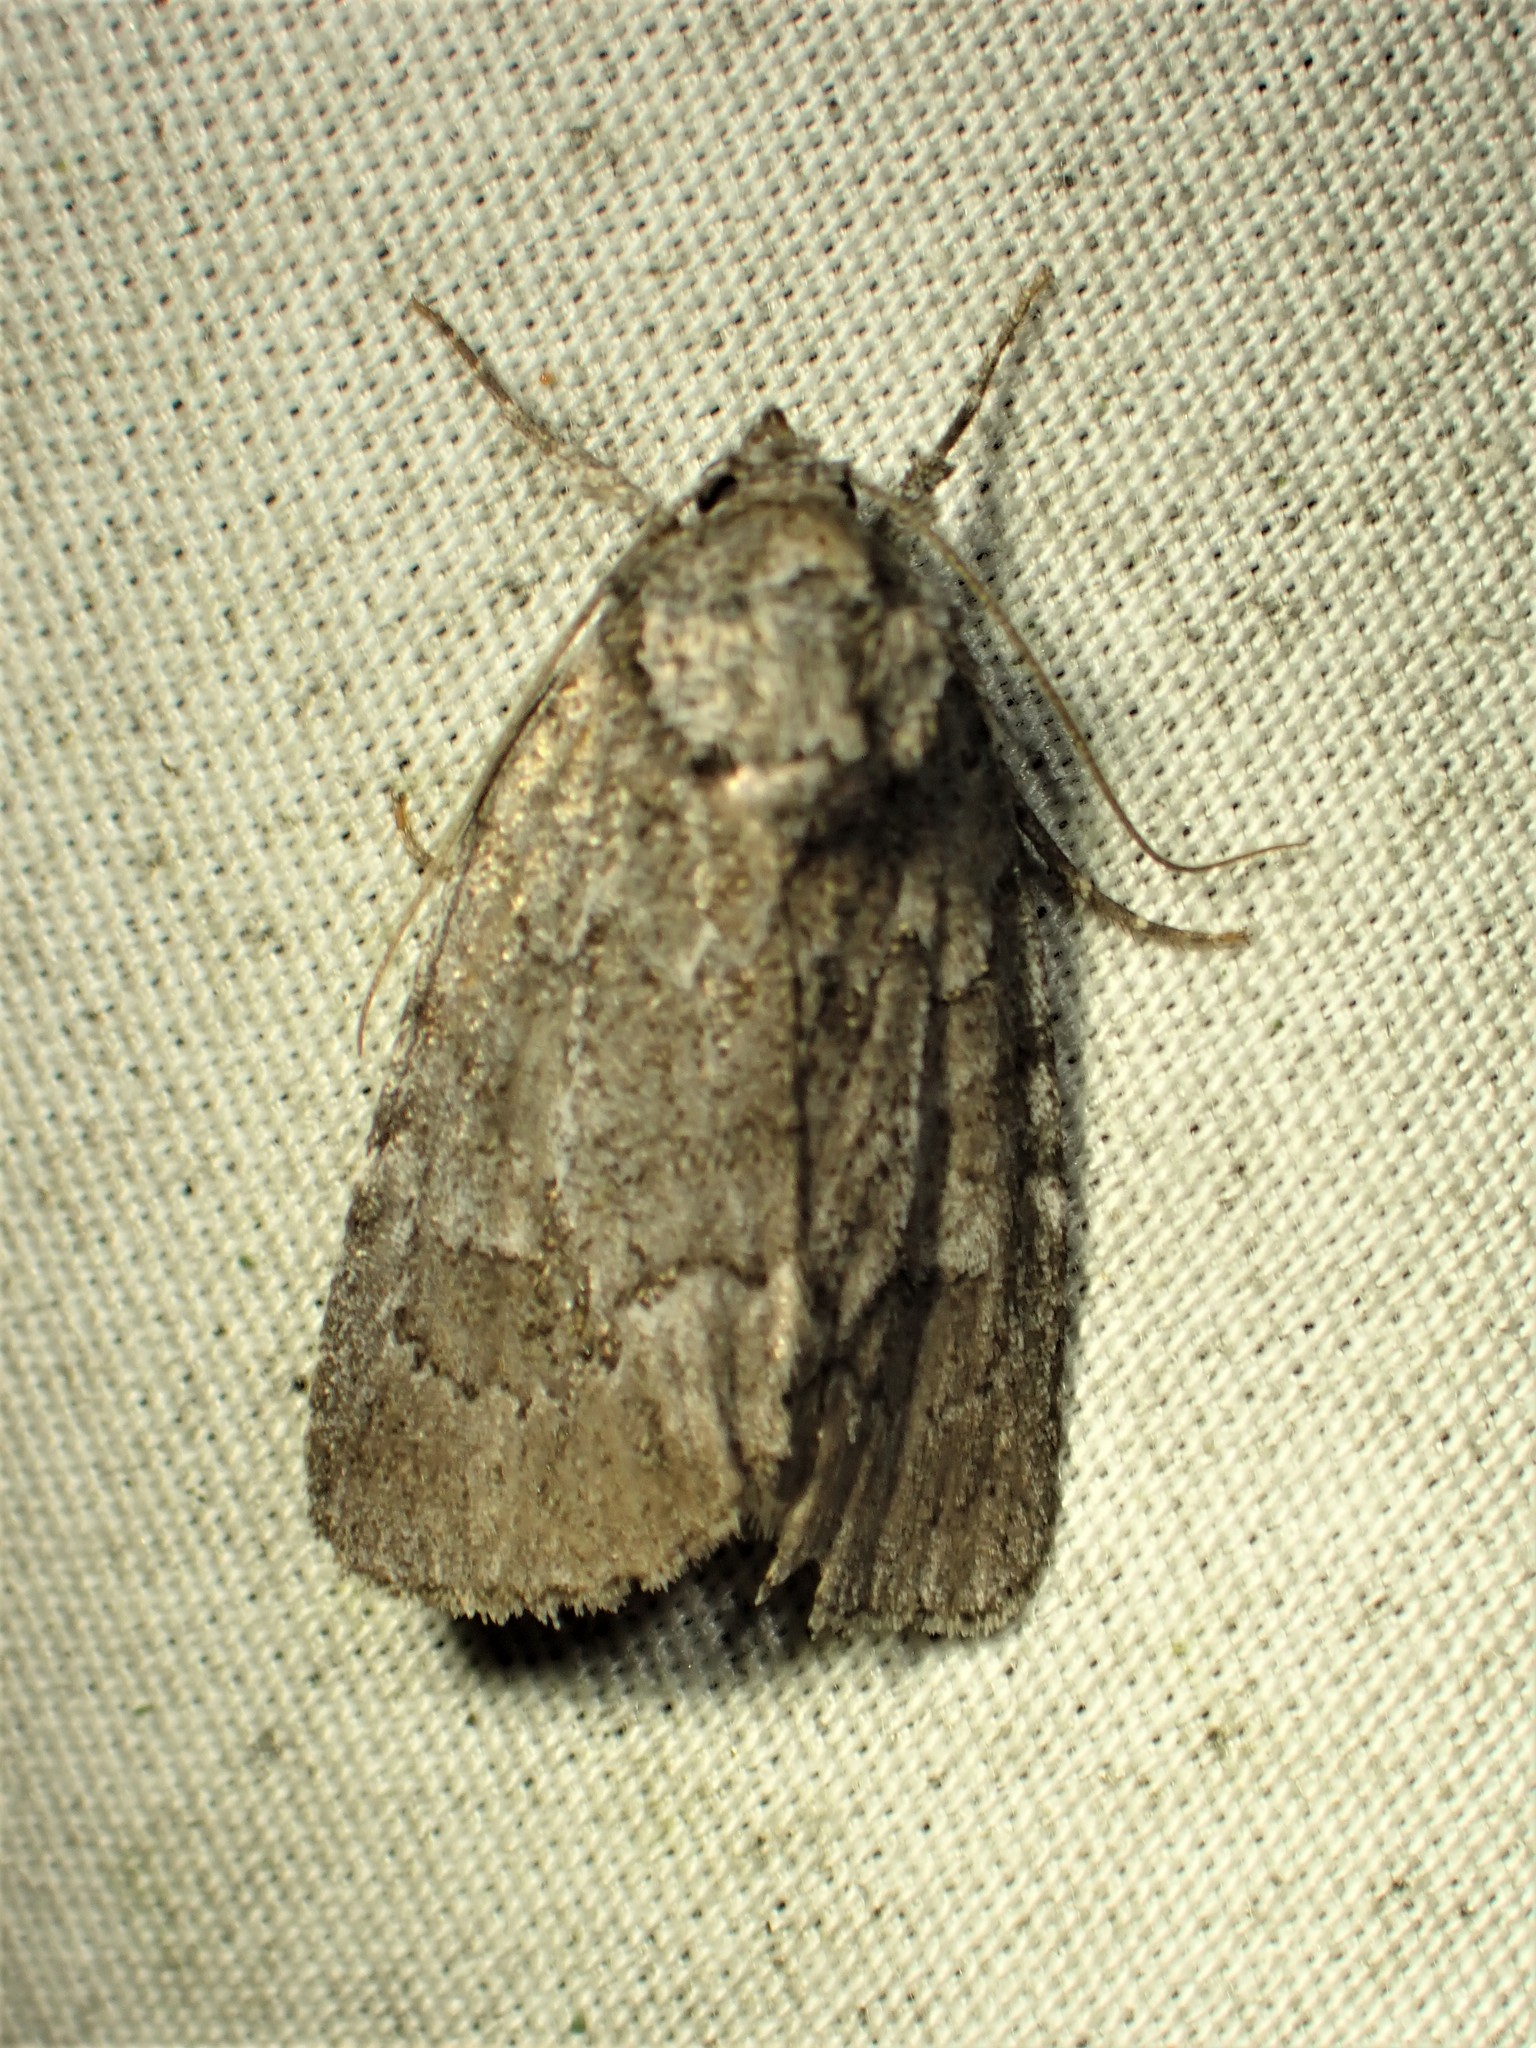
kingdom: Animalia
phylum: Arthropoda
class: Insecta
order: Lepidoptera
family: Noctuidae
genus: Sympistis
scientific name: Sympistis dentata
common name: Blueberry sallow
